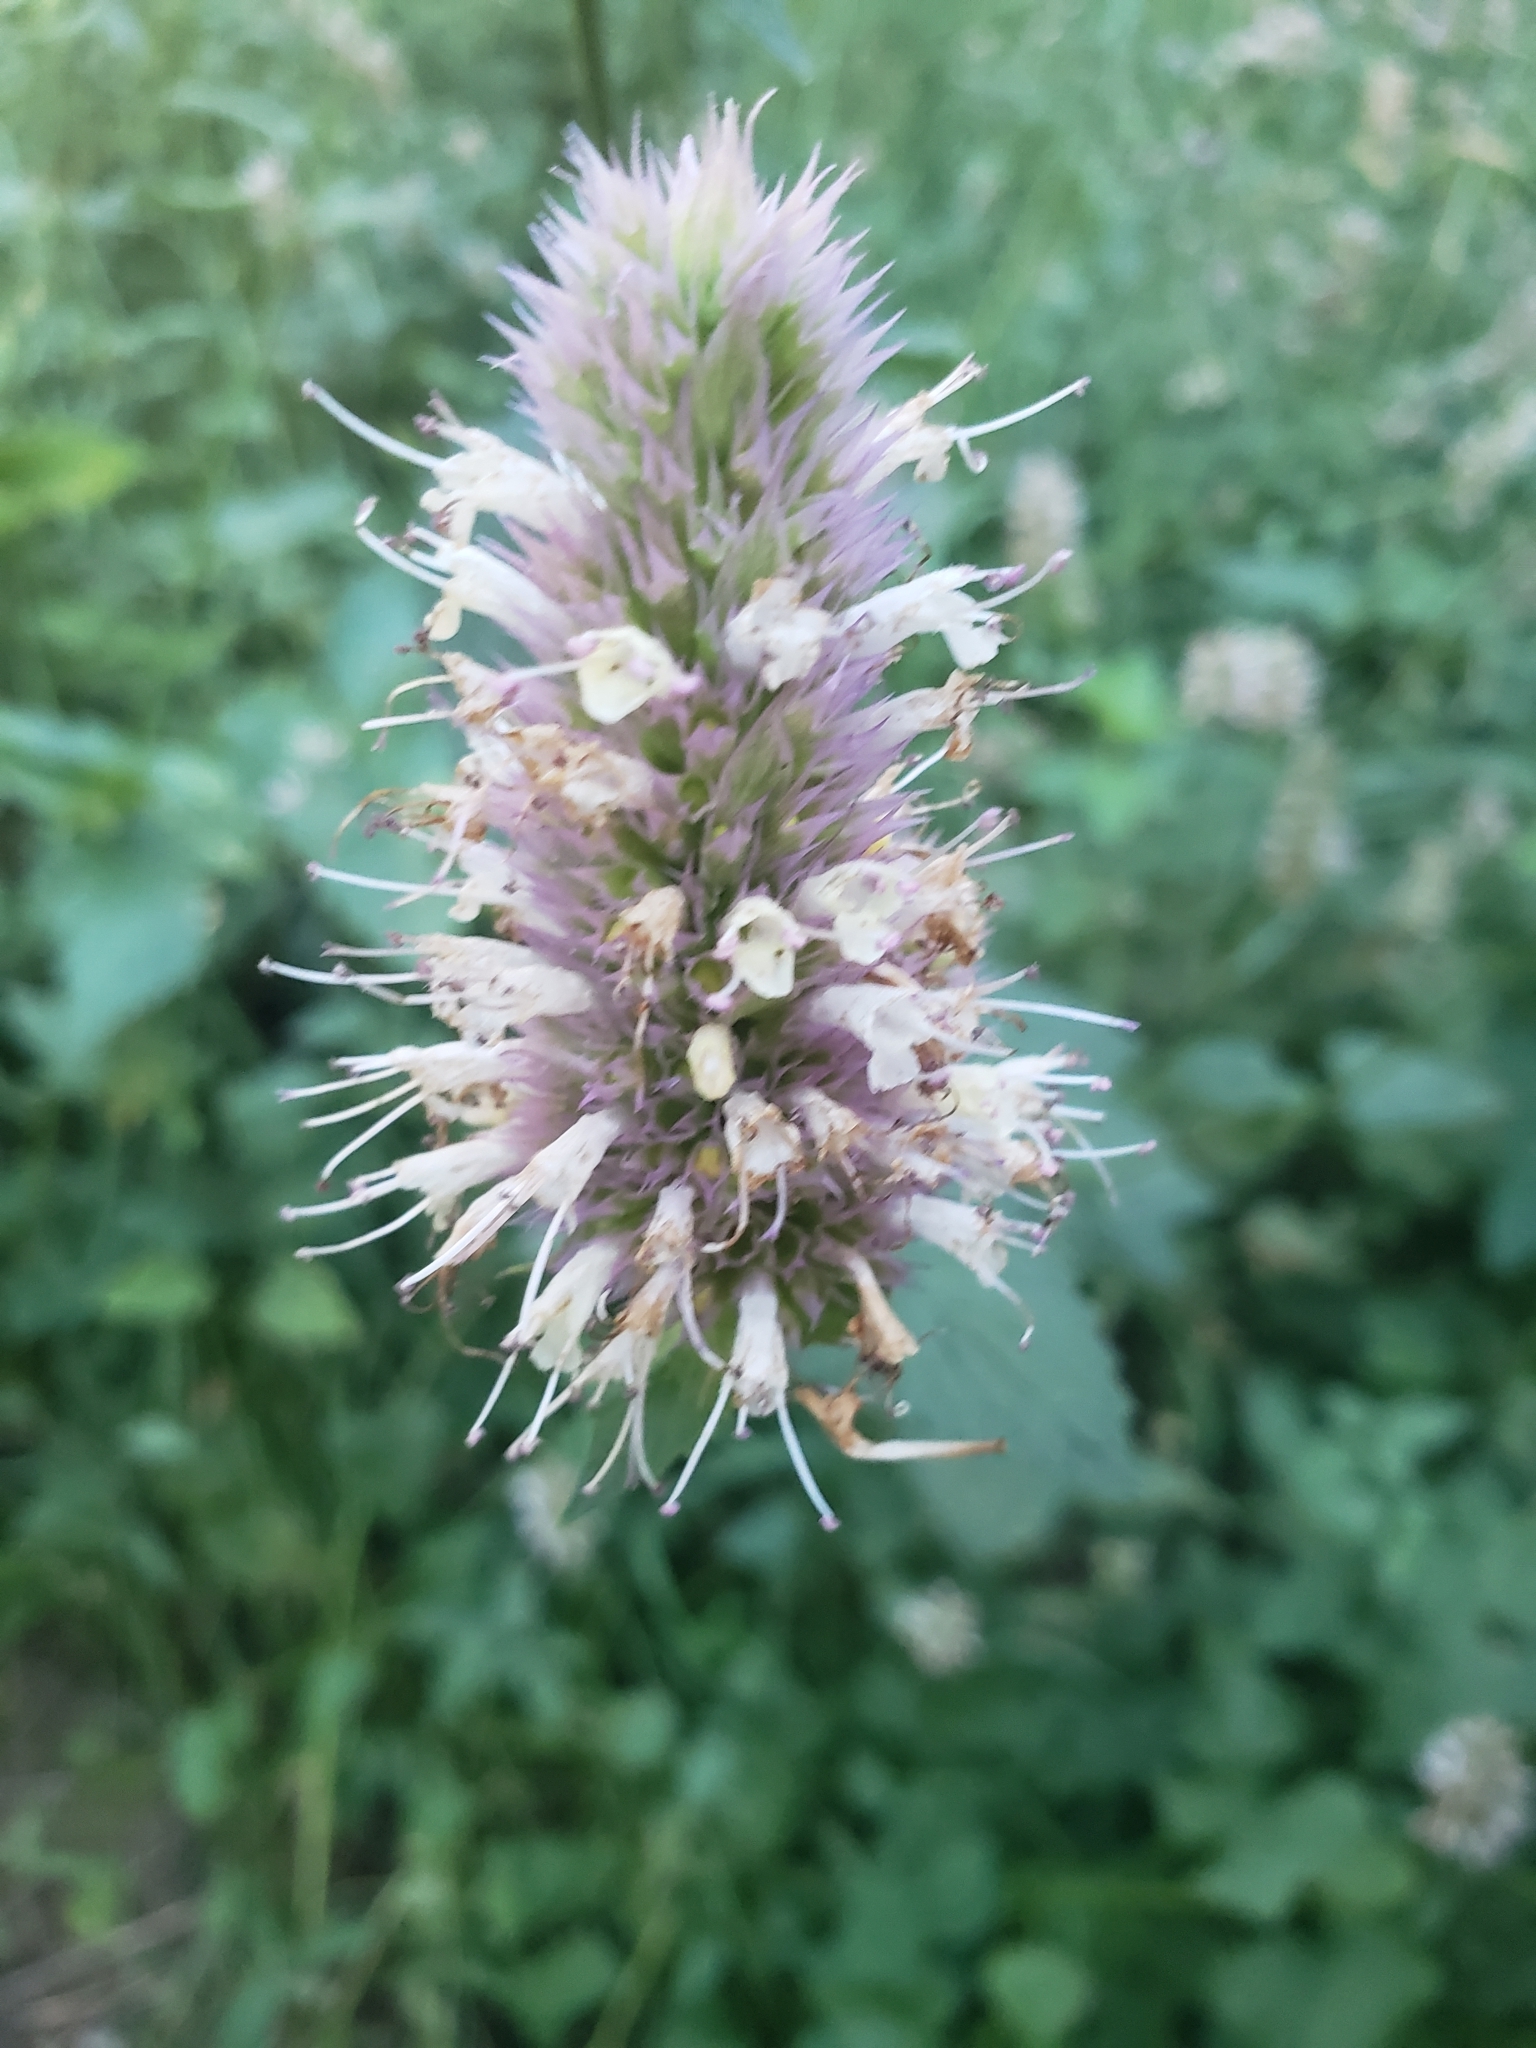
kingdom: Plantae
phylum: Tracheophyta
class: Magnoliopsida
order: Lamiales
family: Lamiaceae
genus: Agastache
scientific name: Agastache urticifolia
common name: Horsemint giant hyssop
